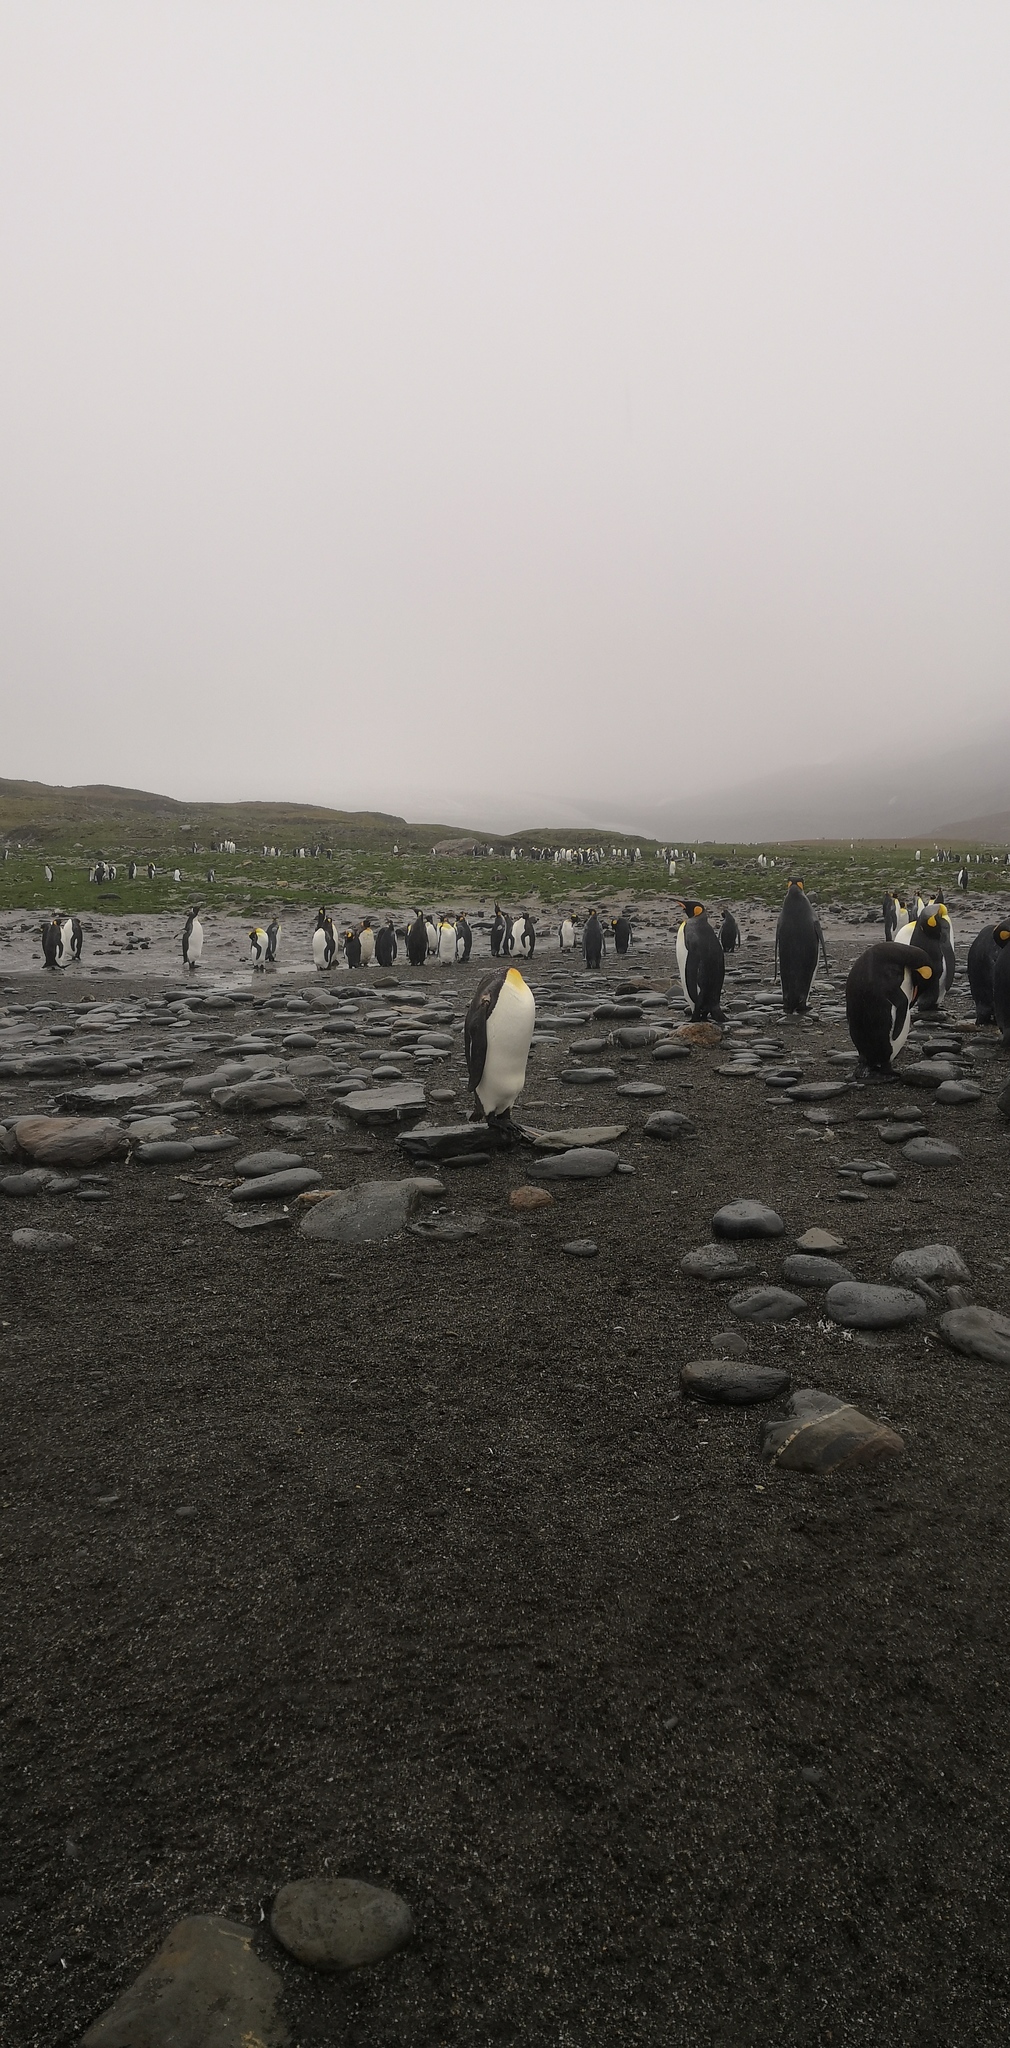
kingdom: Animalia
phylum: Chordata
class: Aves
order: Sphenisciformes
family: Spheniscidae
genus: Aptenodytes
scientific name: Aptenodytes patagonicus
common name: King penguin
